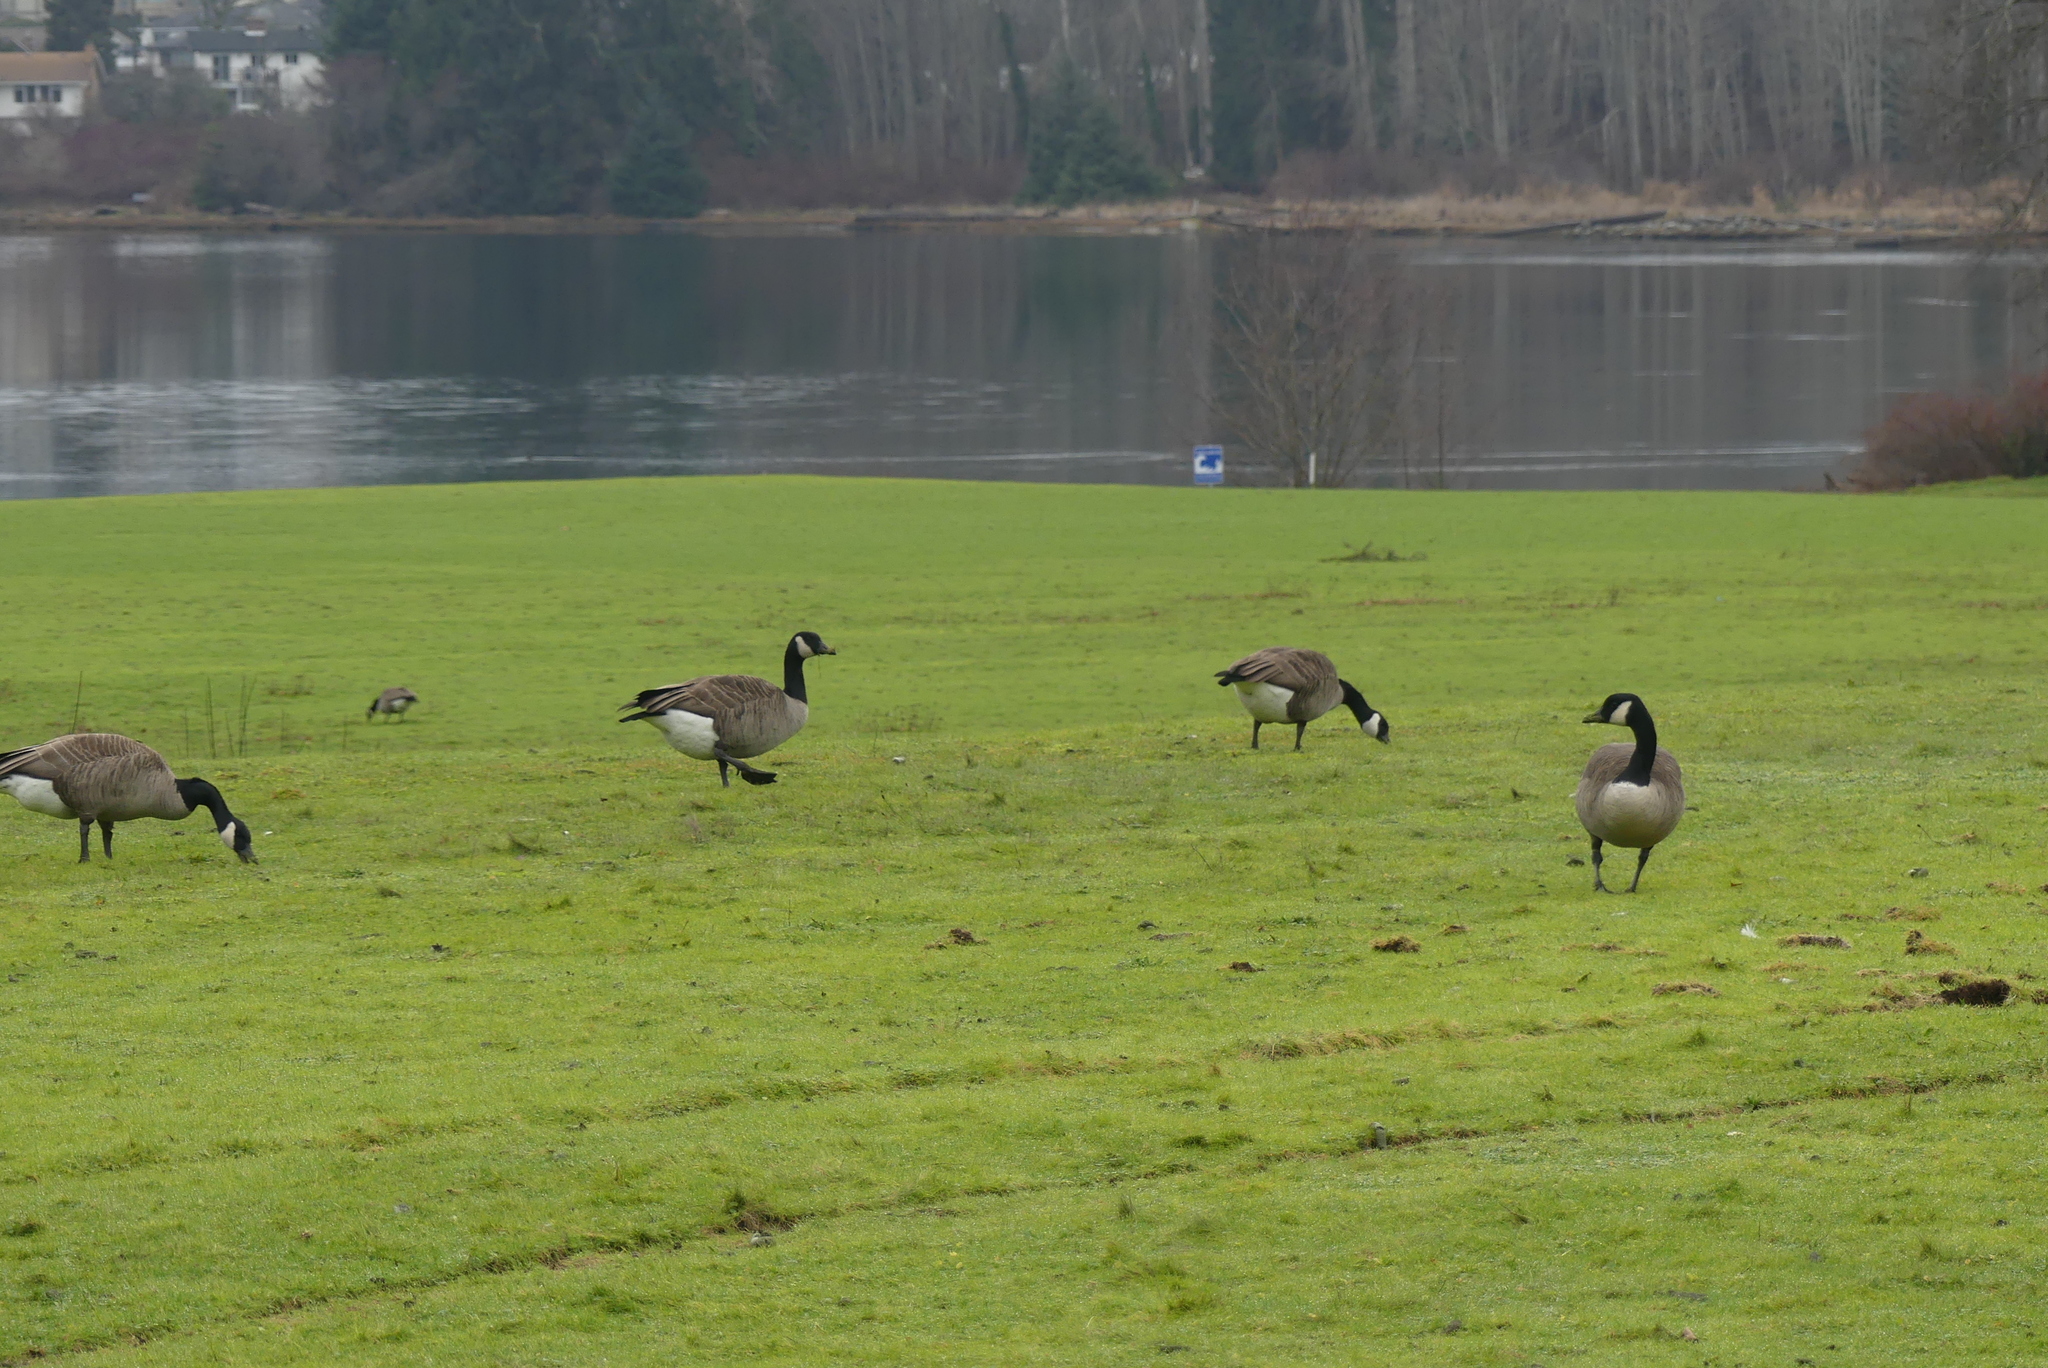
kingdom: Animalia
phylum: Chordata
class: Aves
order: Anseriformes
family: Anatidae
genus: Branta
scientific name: Branta canadensis
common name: Canada goose
